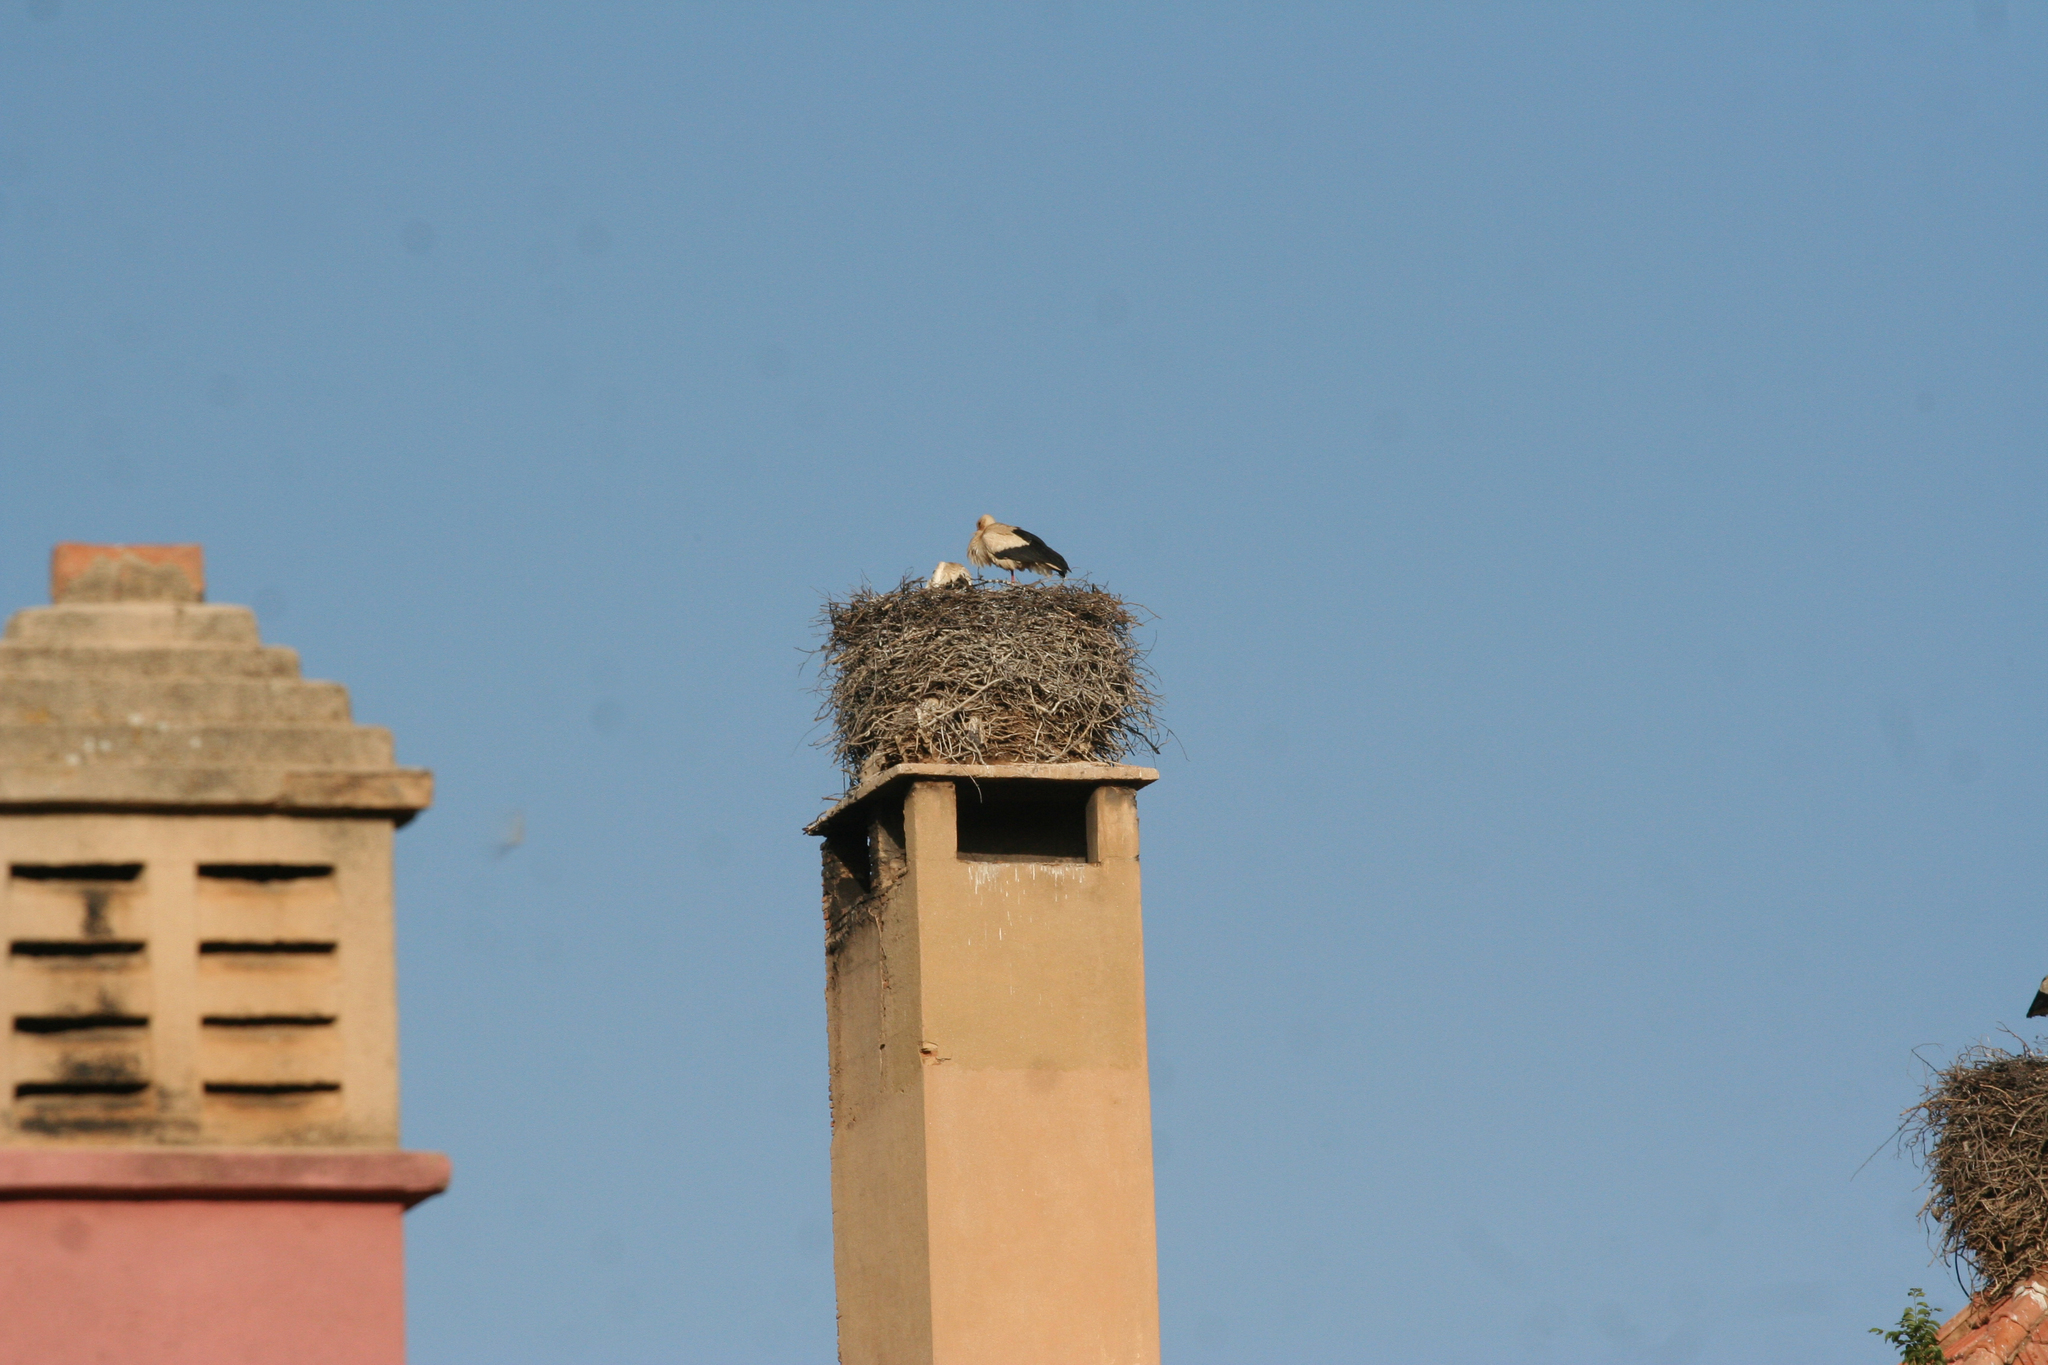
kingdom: Animalia
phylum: Chordata
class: Aves
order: Ciconiiformes
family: Ciconiidae
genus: Ciconia
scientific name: Ciconia ciconia
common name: White stork
